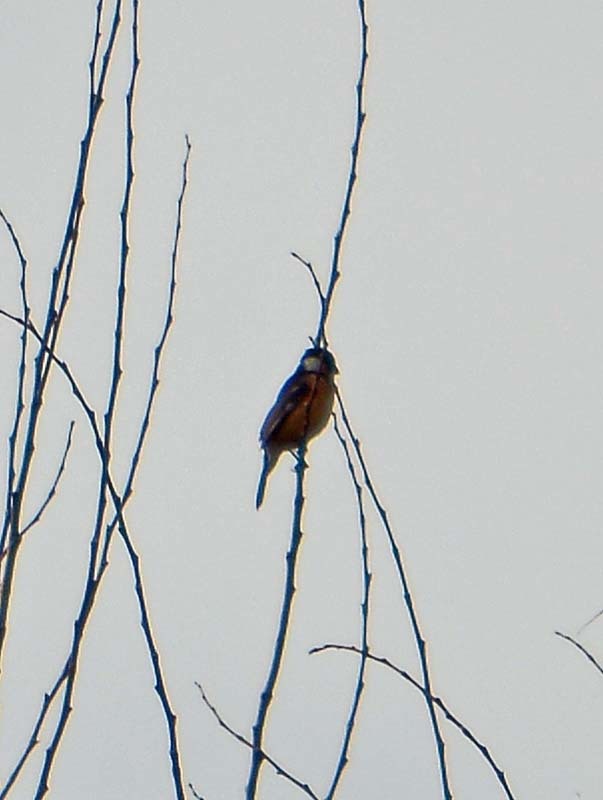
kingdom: Animalia
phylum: Chordata
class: Aves
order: Passeriformes
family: Thraupidae
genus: Sporophila
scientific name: Sporophila torqueola
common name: White-collared seedeater
